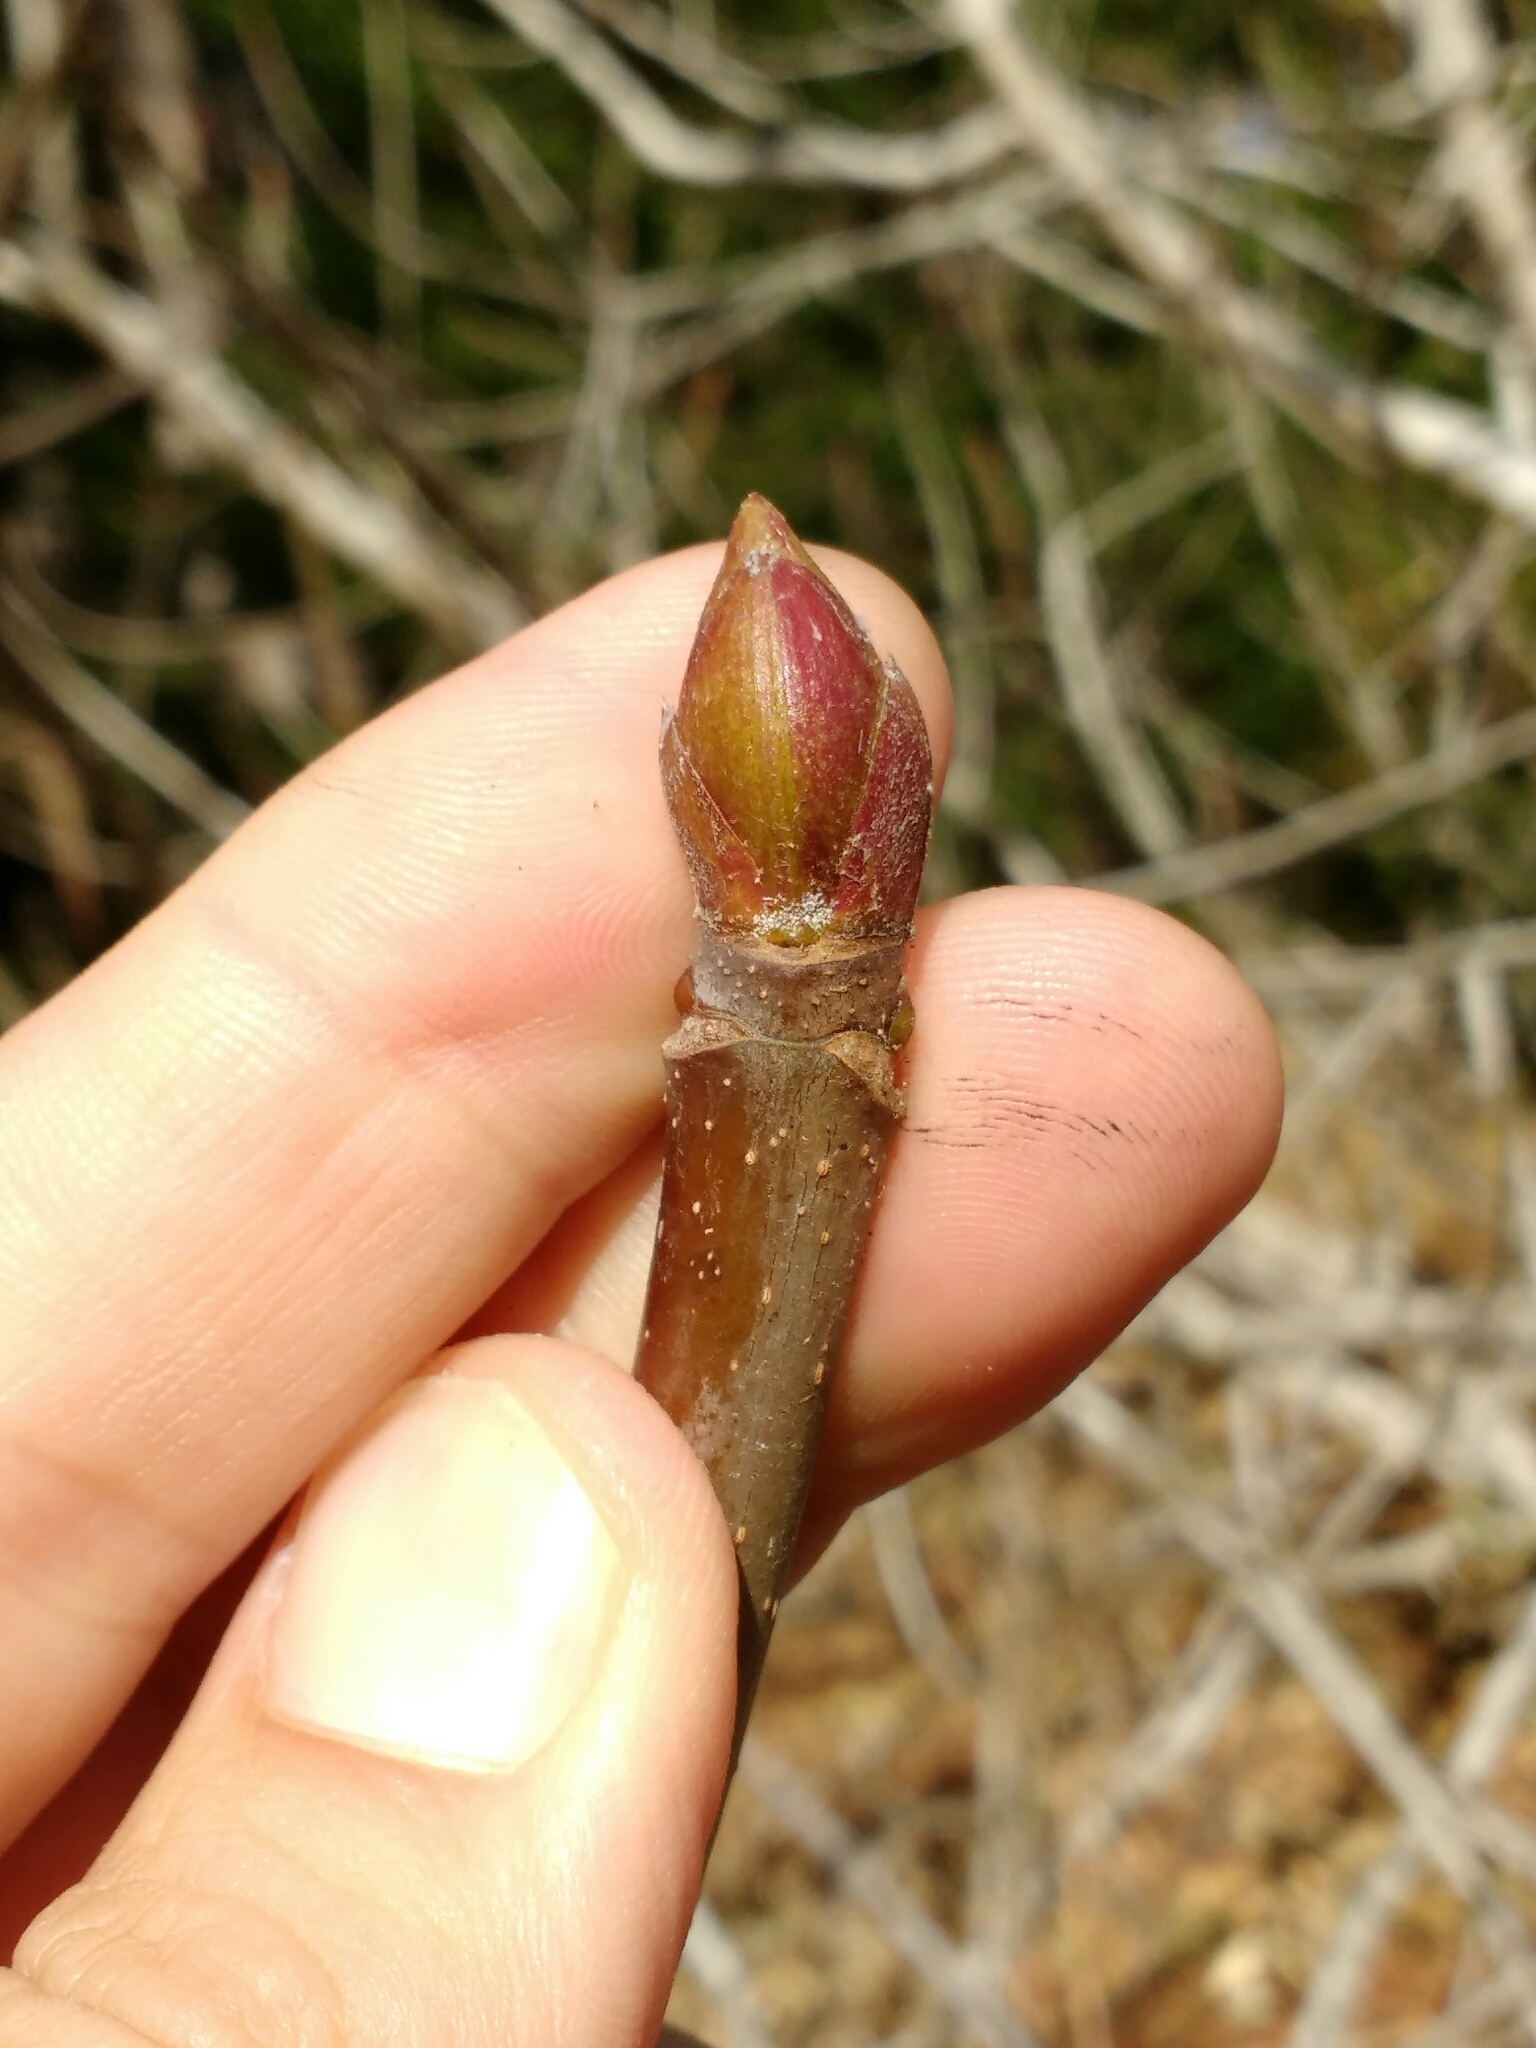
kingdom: Plantae
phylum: Tracheophyta
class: Magnoliopsida
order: Sapindales
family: Sapindaceae
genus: Aesculus
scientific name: Aesculus californica
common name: California buckeye
